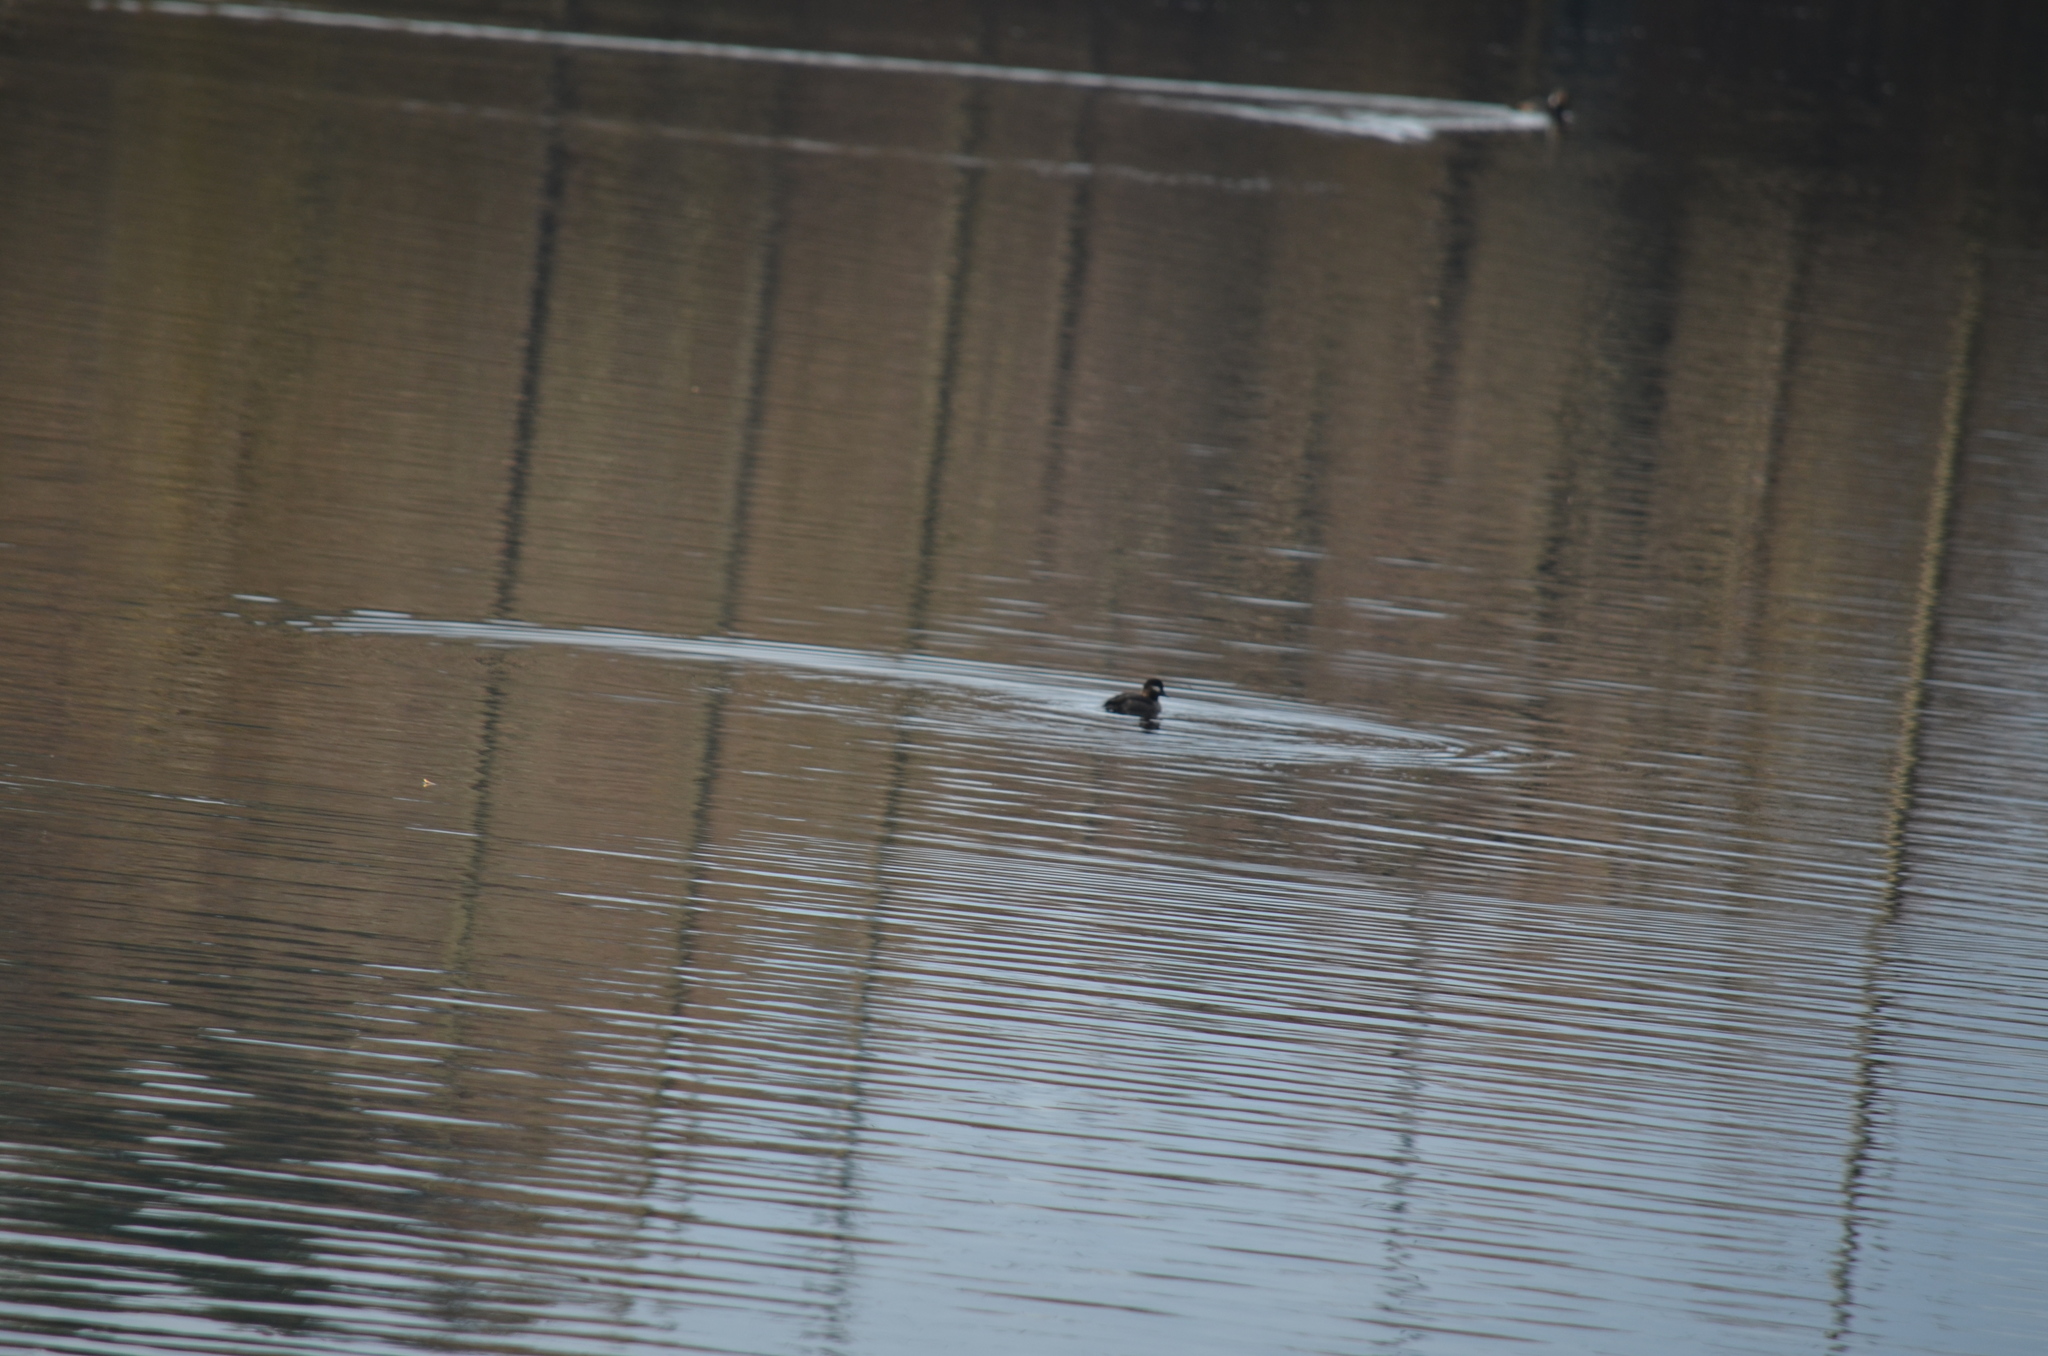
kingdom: Animalia
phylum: Chordata
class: Aves
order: Anseriformes
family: Anatidae
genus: Bucephala
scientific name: Bucephala albeola
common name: Bufflehead
